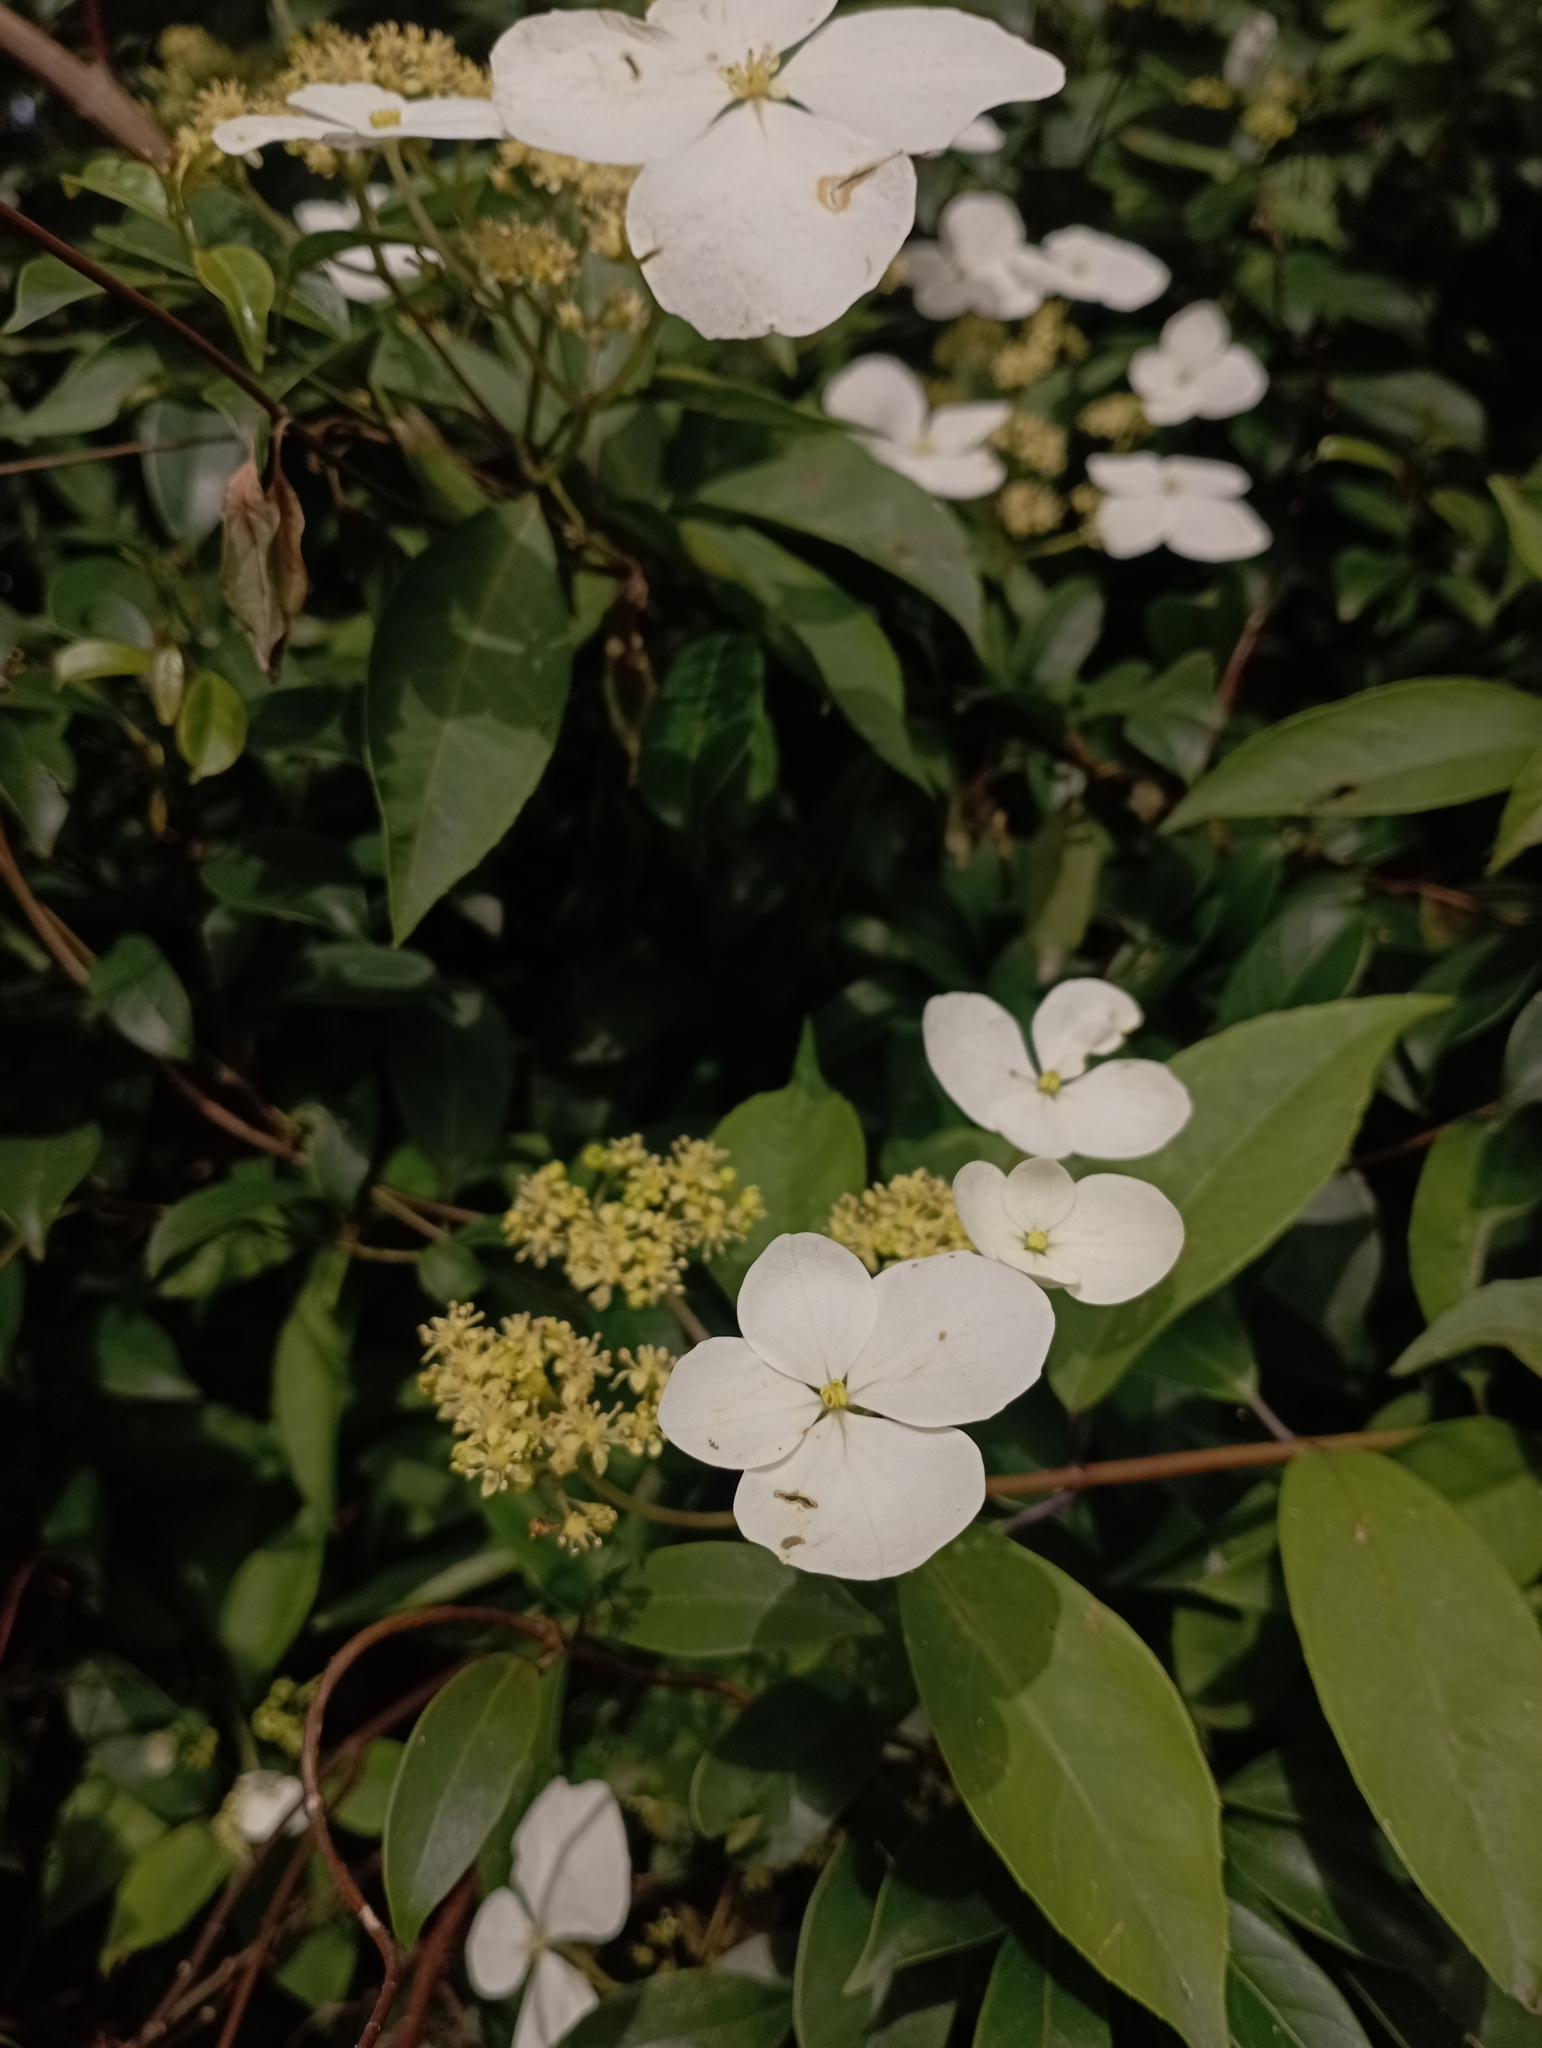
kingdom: Plantae
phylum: Tracheophyta
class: Magnoliopsida
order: Cornales
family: Hydrangeaceae
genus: Hydrangea
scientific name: Hydrangea chinensis
